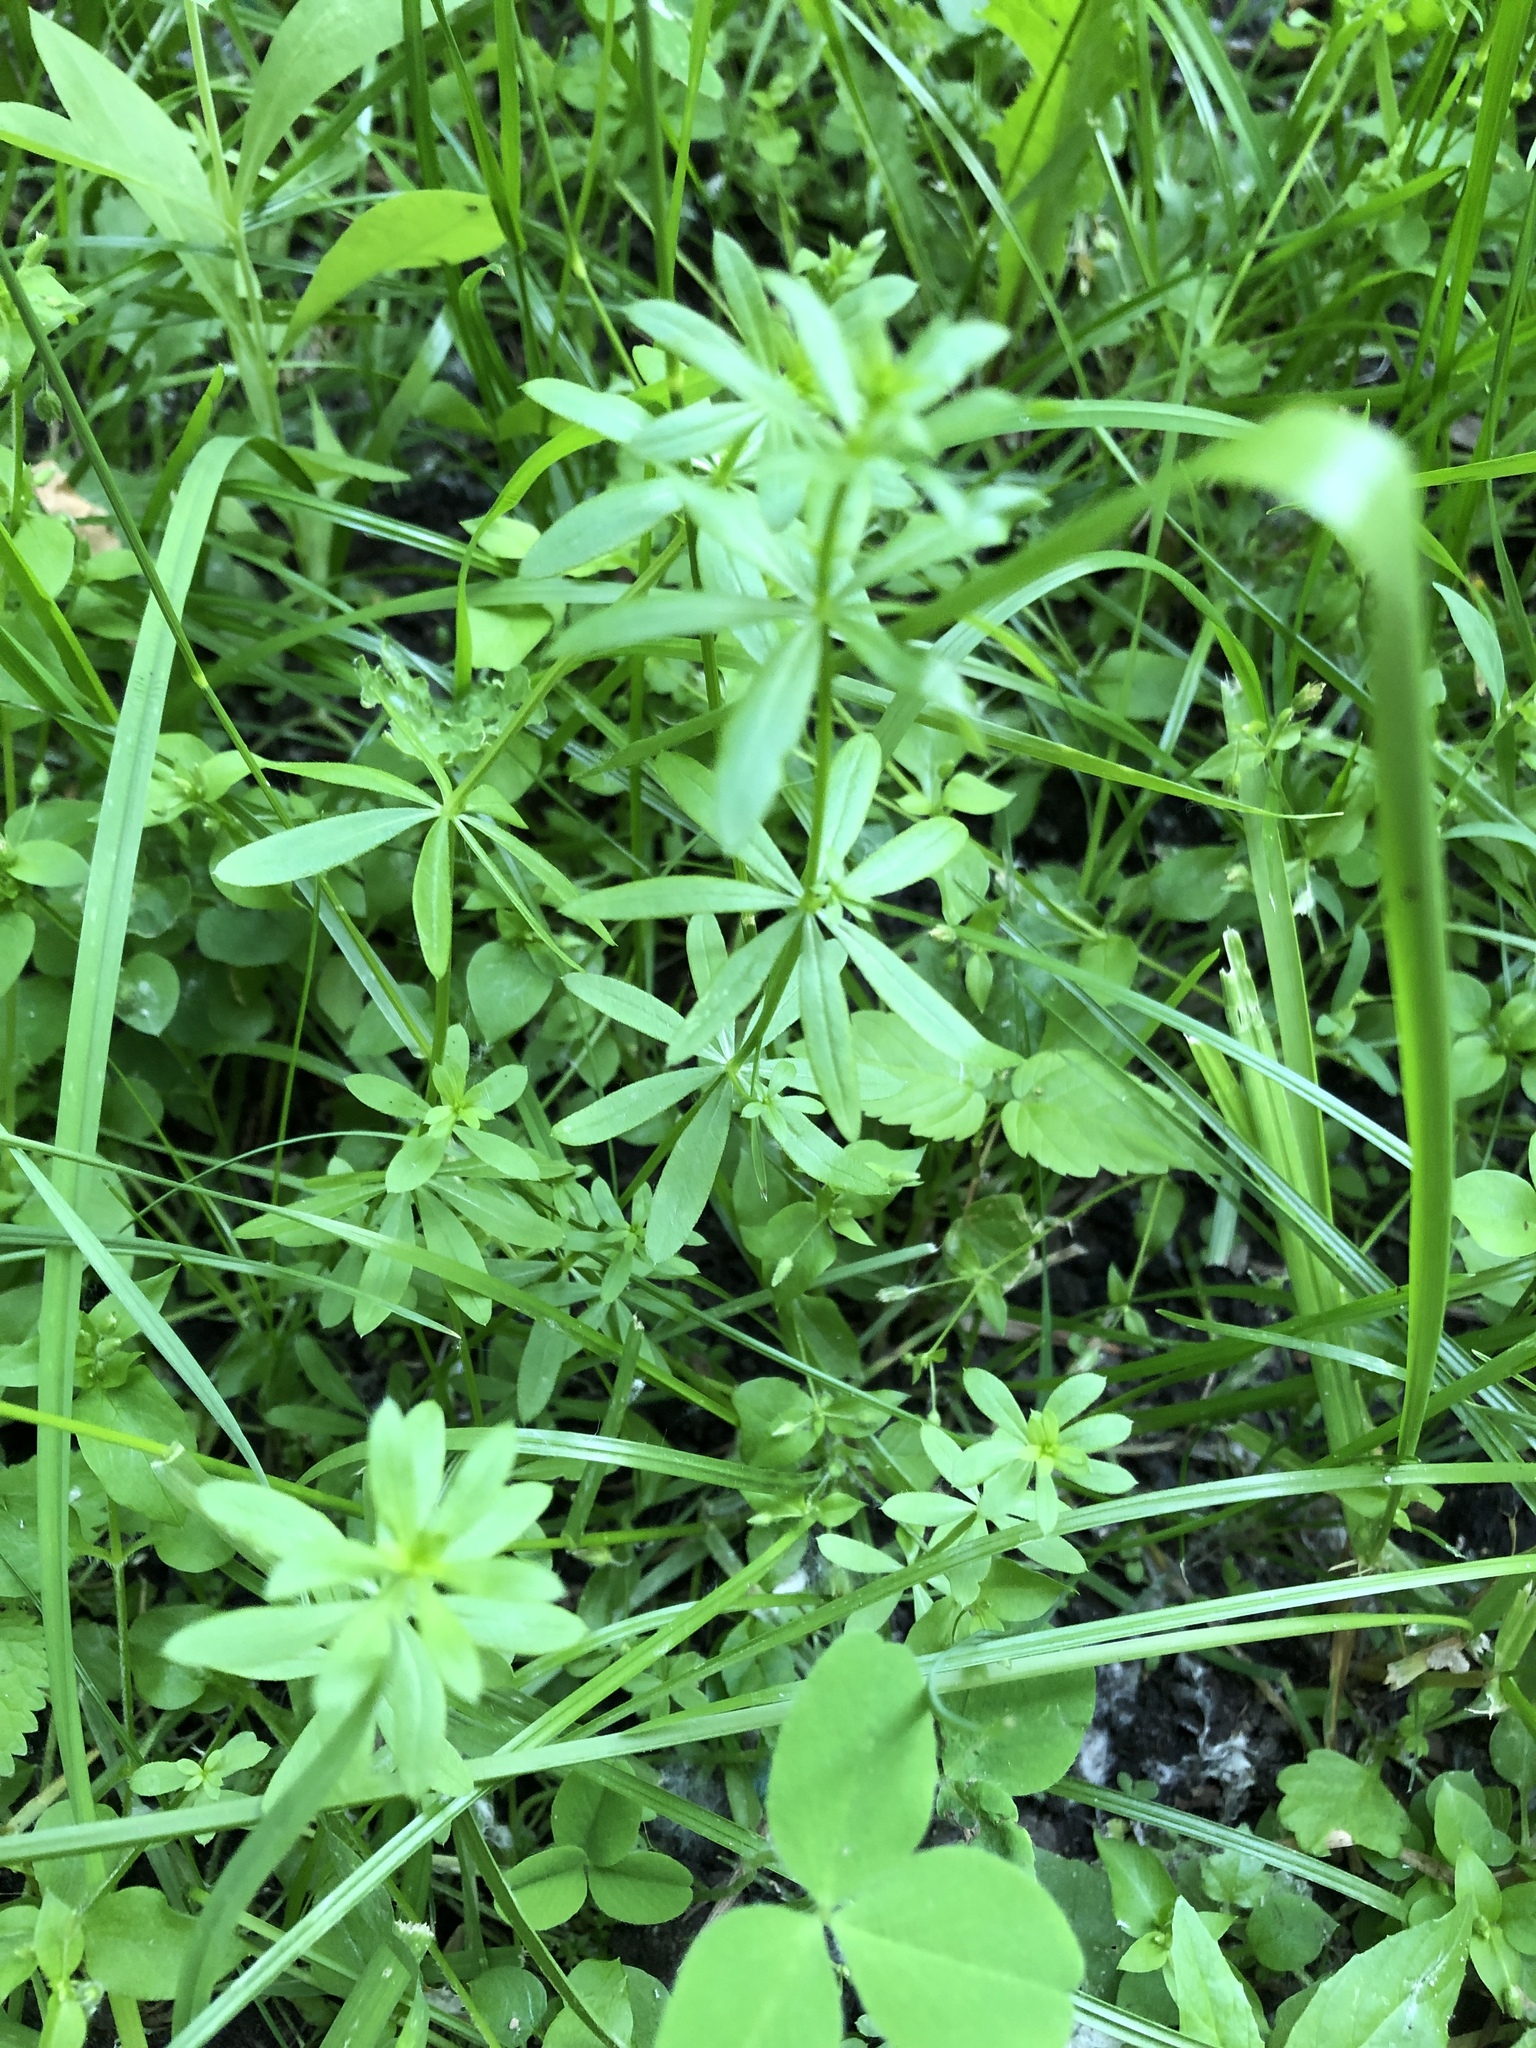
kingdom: Plantae
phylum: Tracheophyta
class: Magnoliopsida
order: Gentianales
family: Rubiaceae
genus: Galium
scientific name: Galium mollugo
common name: Hedge bedstraw
